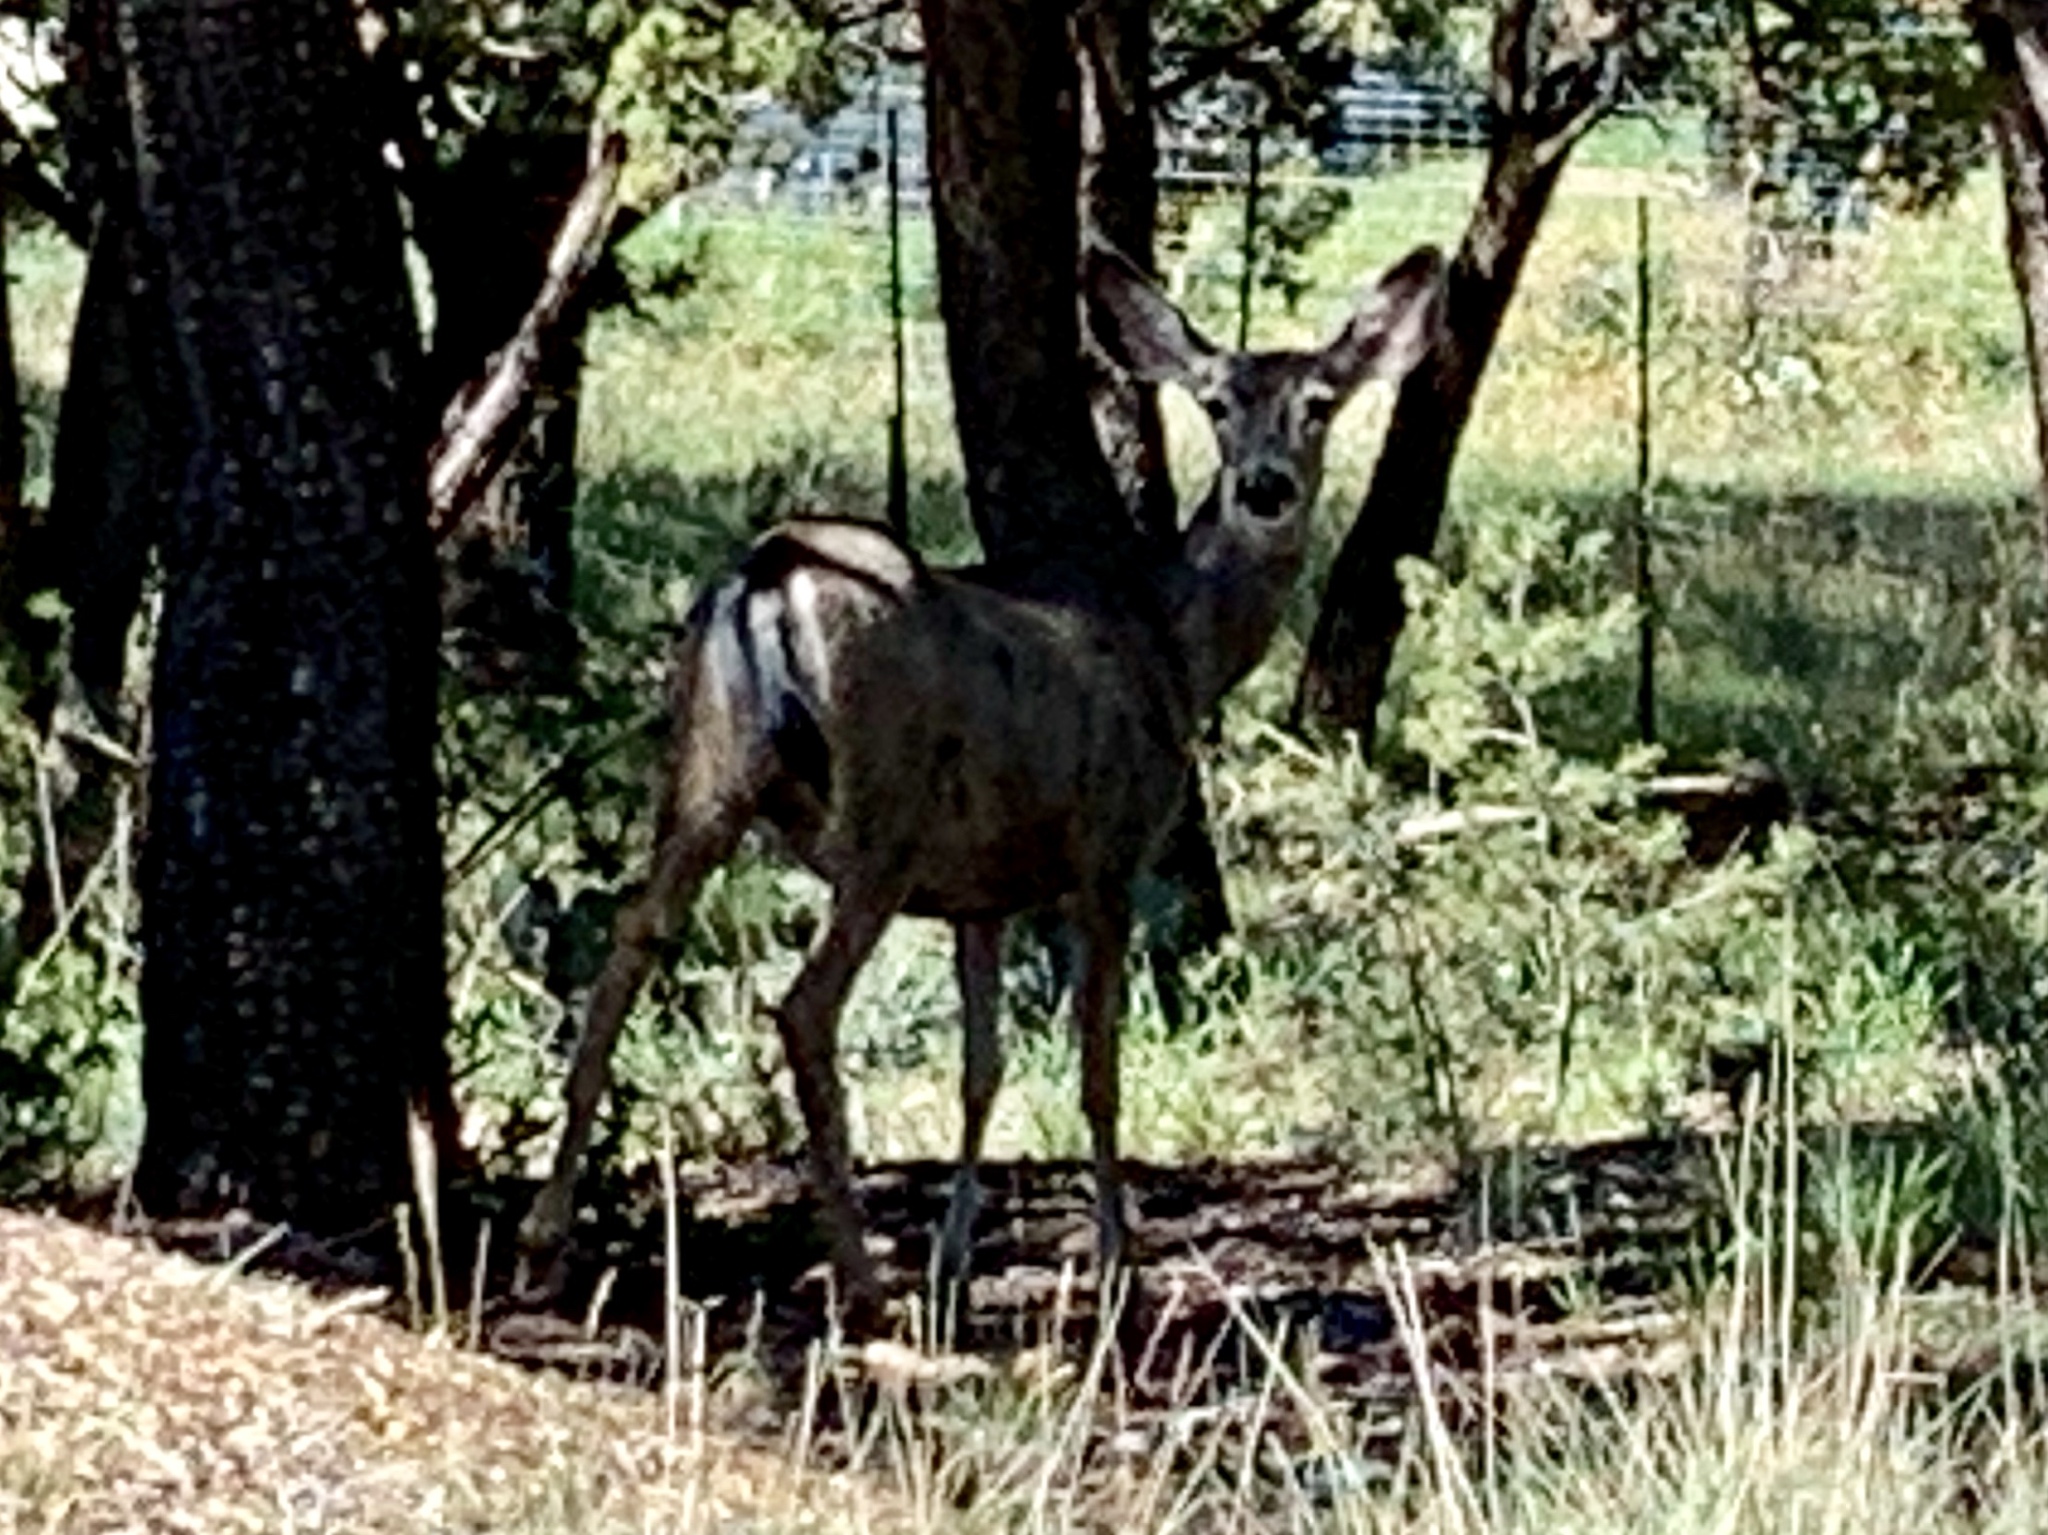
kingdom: Animalia
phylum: Chordata
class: Mammalia
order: Artiodactyla
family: Cervidae
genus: Odocoileus
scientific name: Odocoileus hemionus
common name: Mule deer
